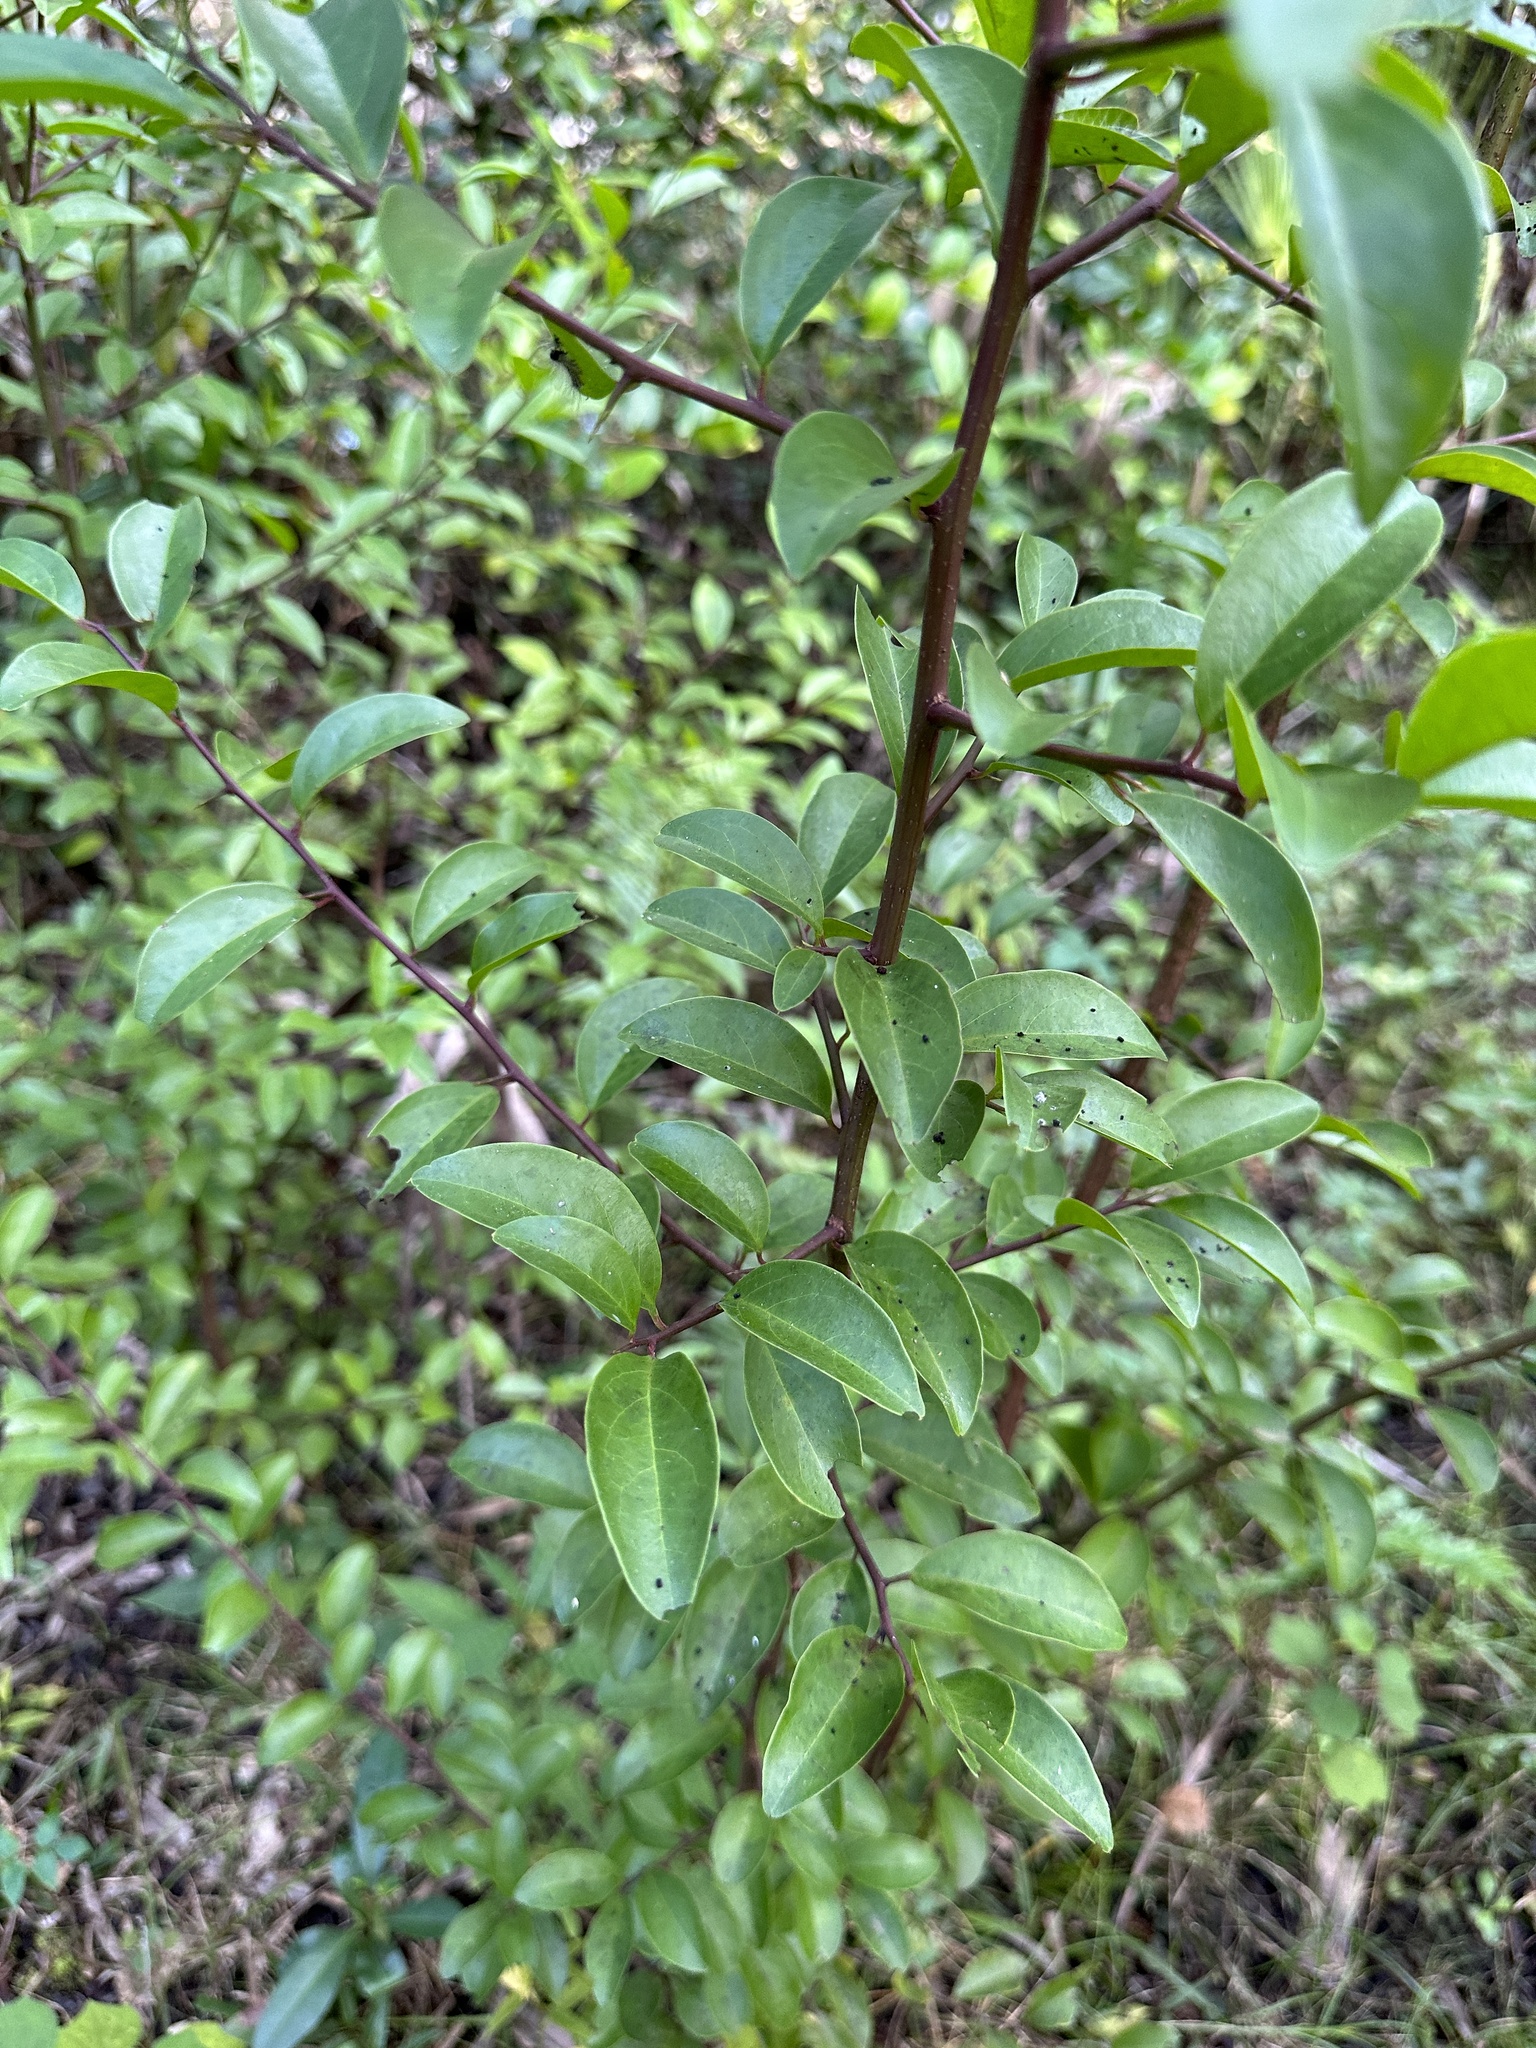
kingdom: Plantae
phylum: Tracheophyta
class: Magnoliopsida
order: Santalales
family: Ximeniaceae
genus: Ximenia
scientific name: Ximenia americana
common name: Tallowwood
